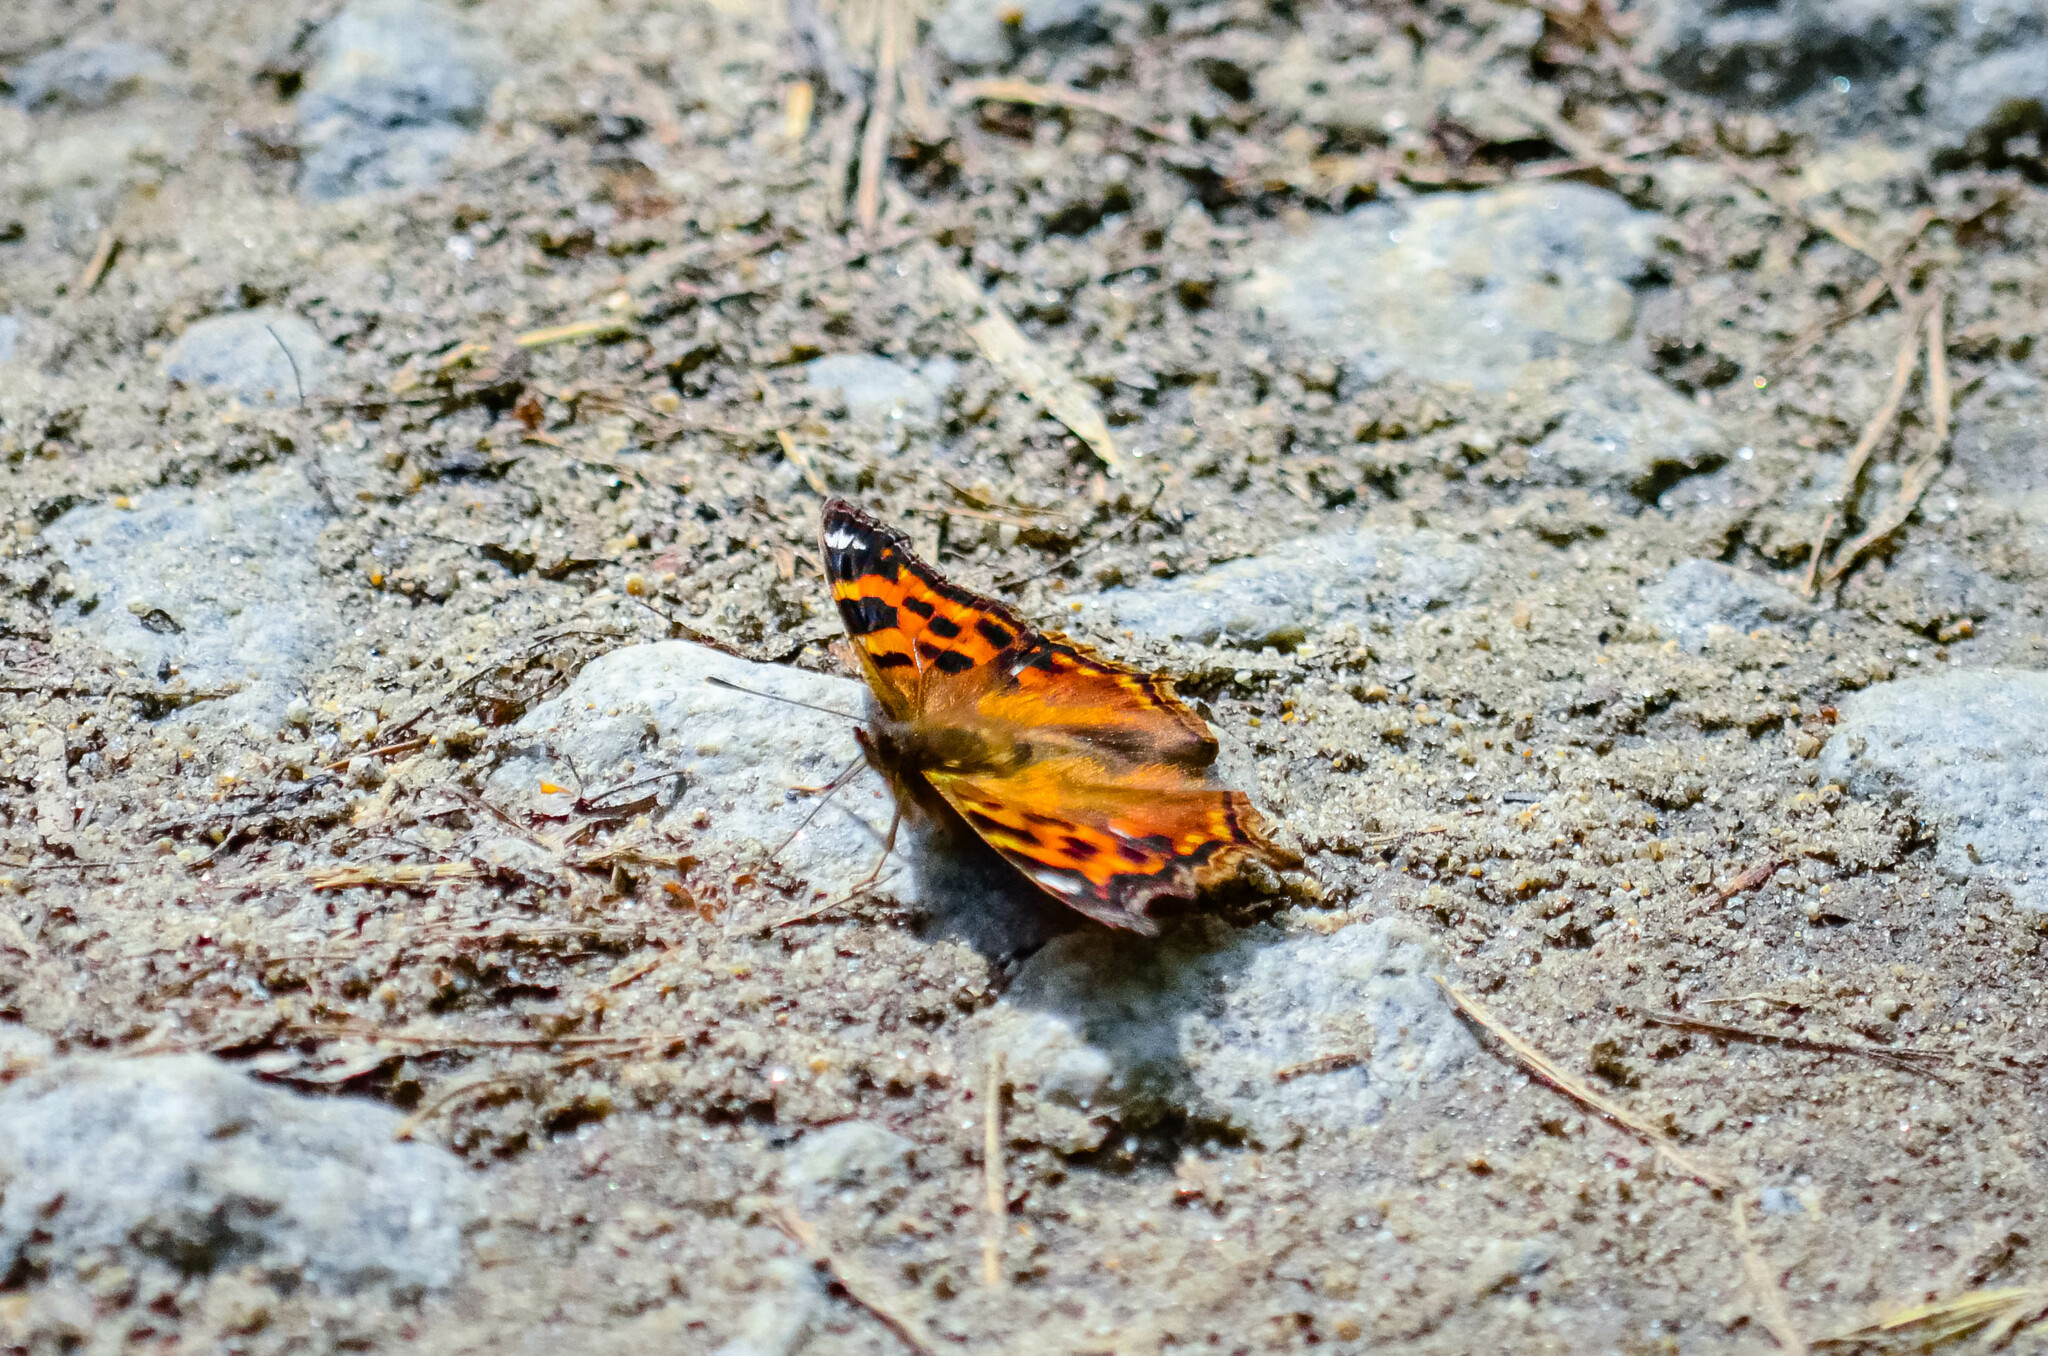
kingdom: Animalia
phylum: Arthropoda
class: Insecta
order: Lepidoptera
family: Nymphalidae
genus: Polygonia
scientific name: Polygonia vaualbum
